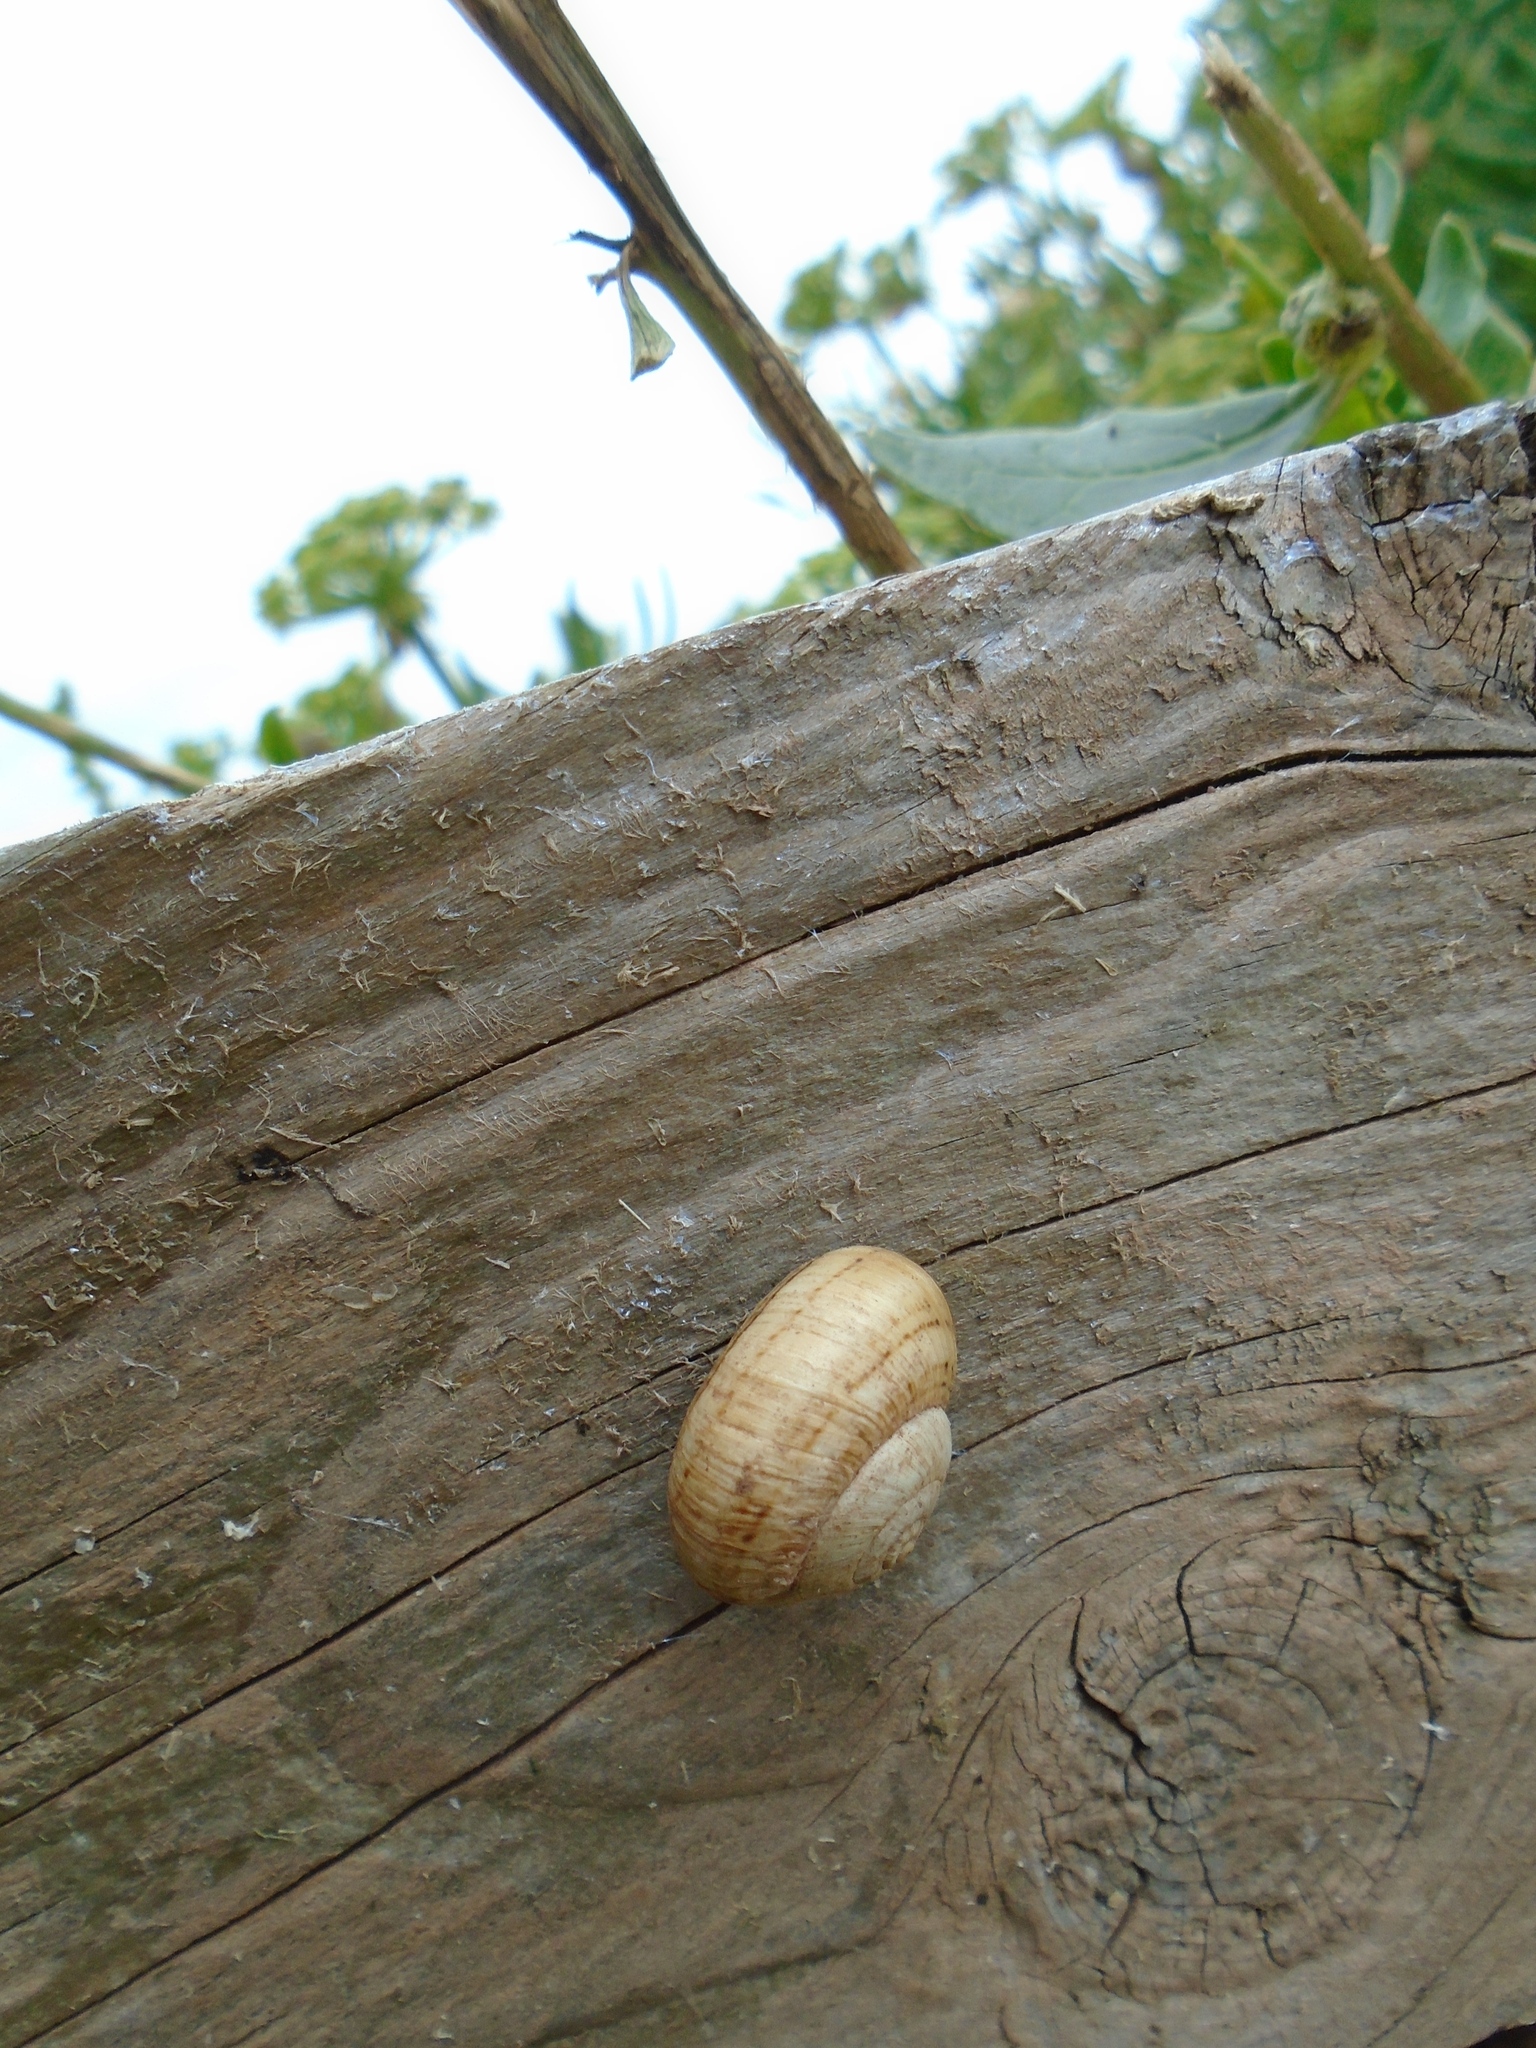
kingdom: Animalia
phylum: Mollusca
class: Gastropoda
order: Stylommatophora
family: Helicidae
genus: Theba
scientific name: Theba pisana
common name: White snail
